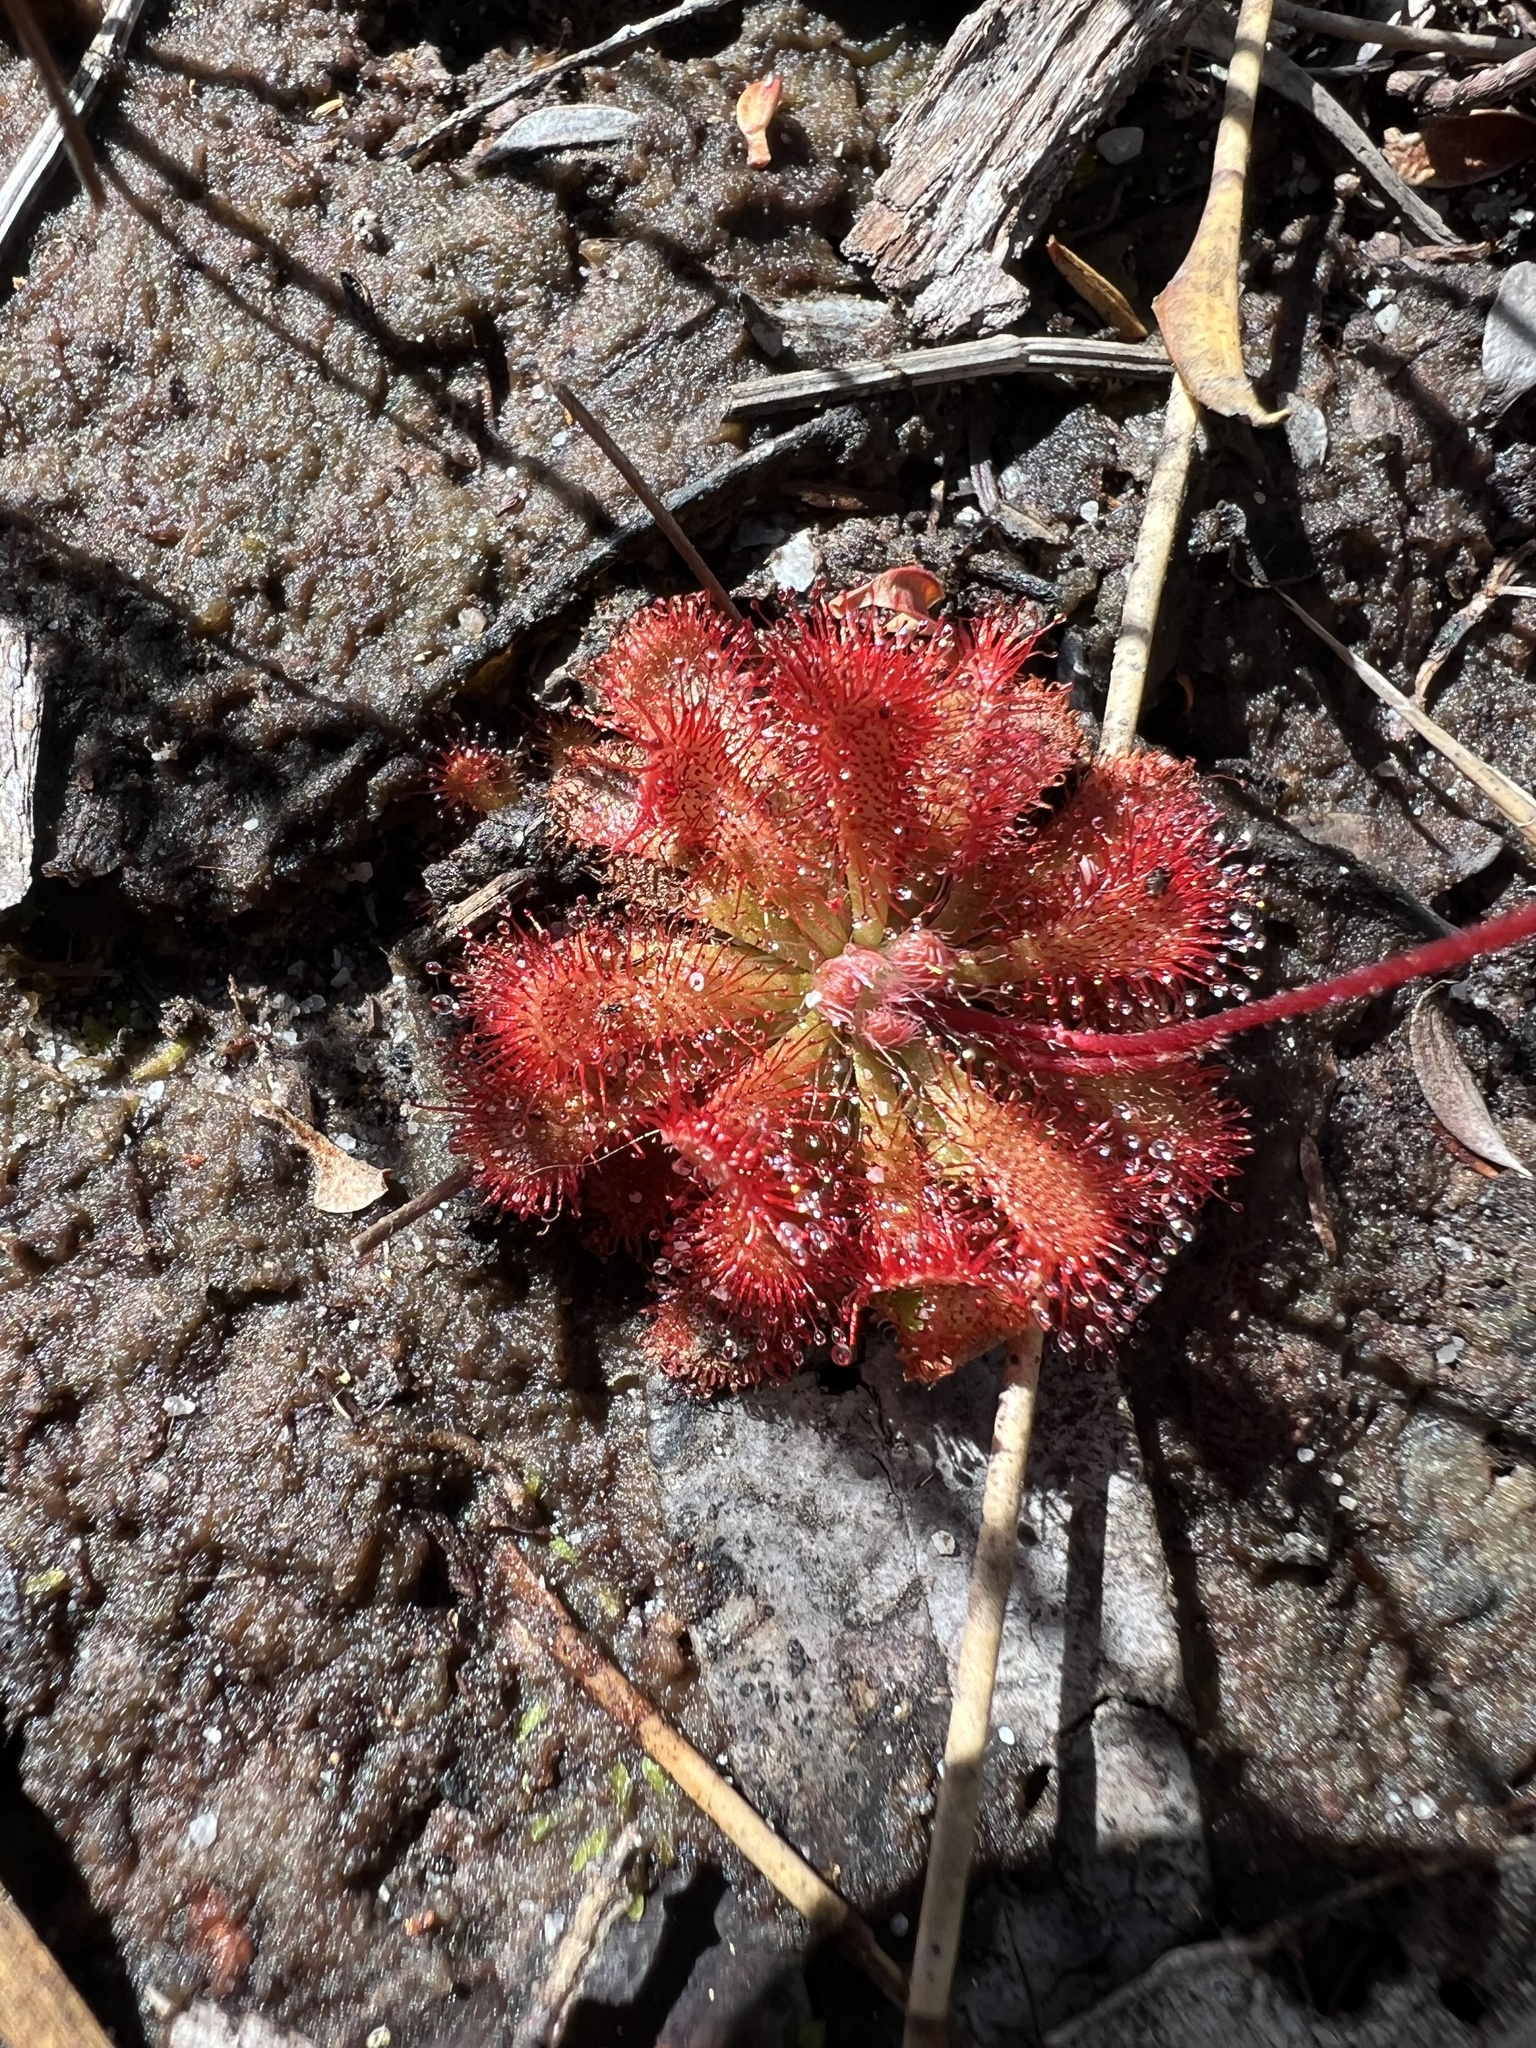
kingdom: Plantae
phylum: Tracheophyta
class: Magnoliopsida
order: Caryophyllales
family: Droseraceae
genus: Drosera
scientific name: Drosera spatulata
